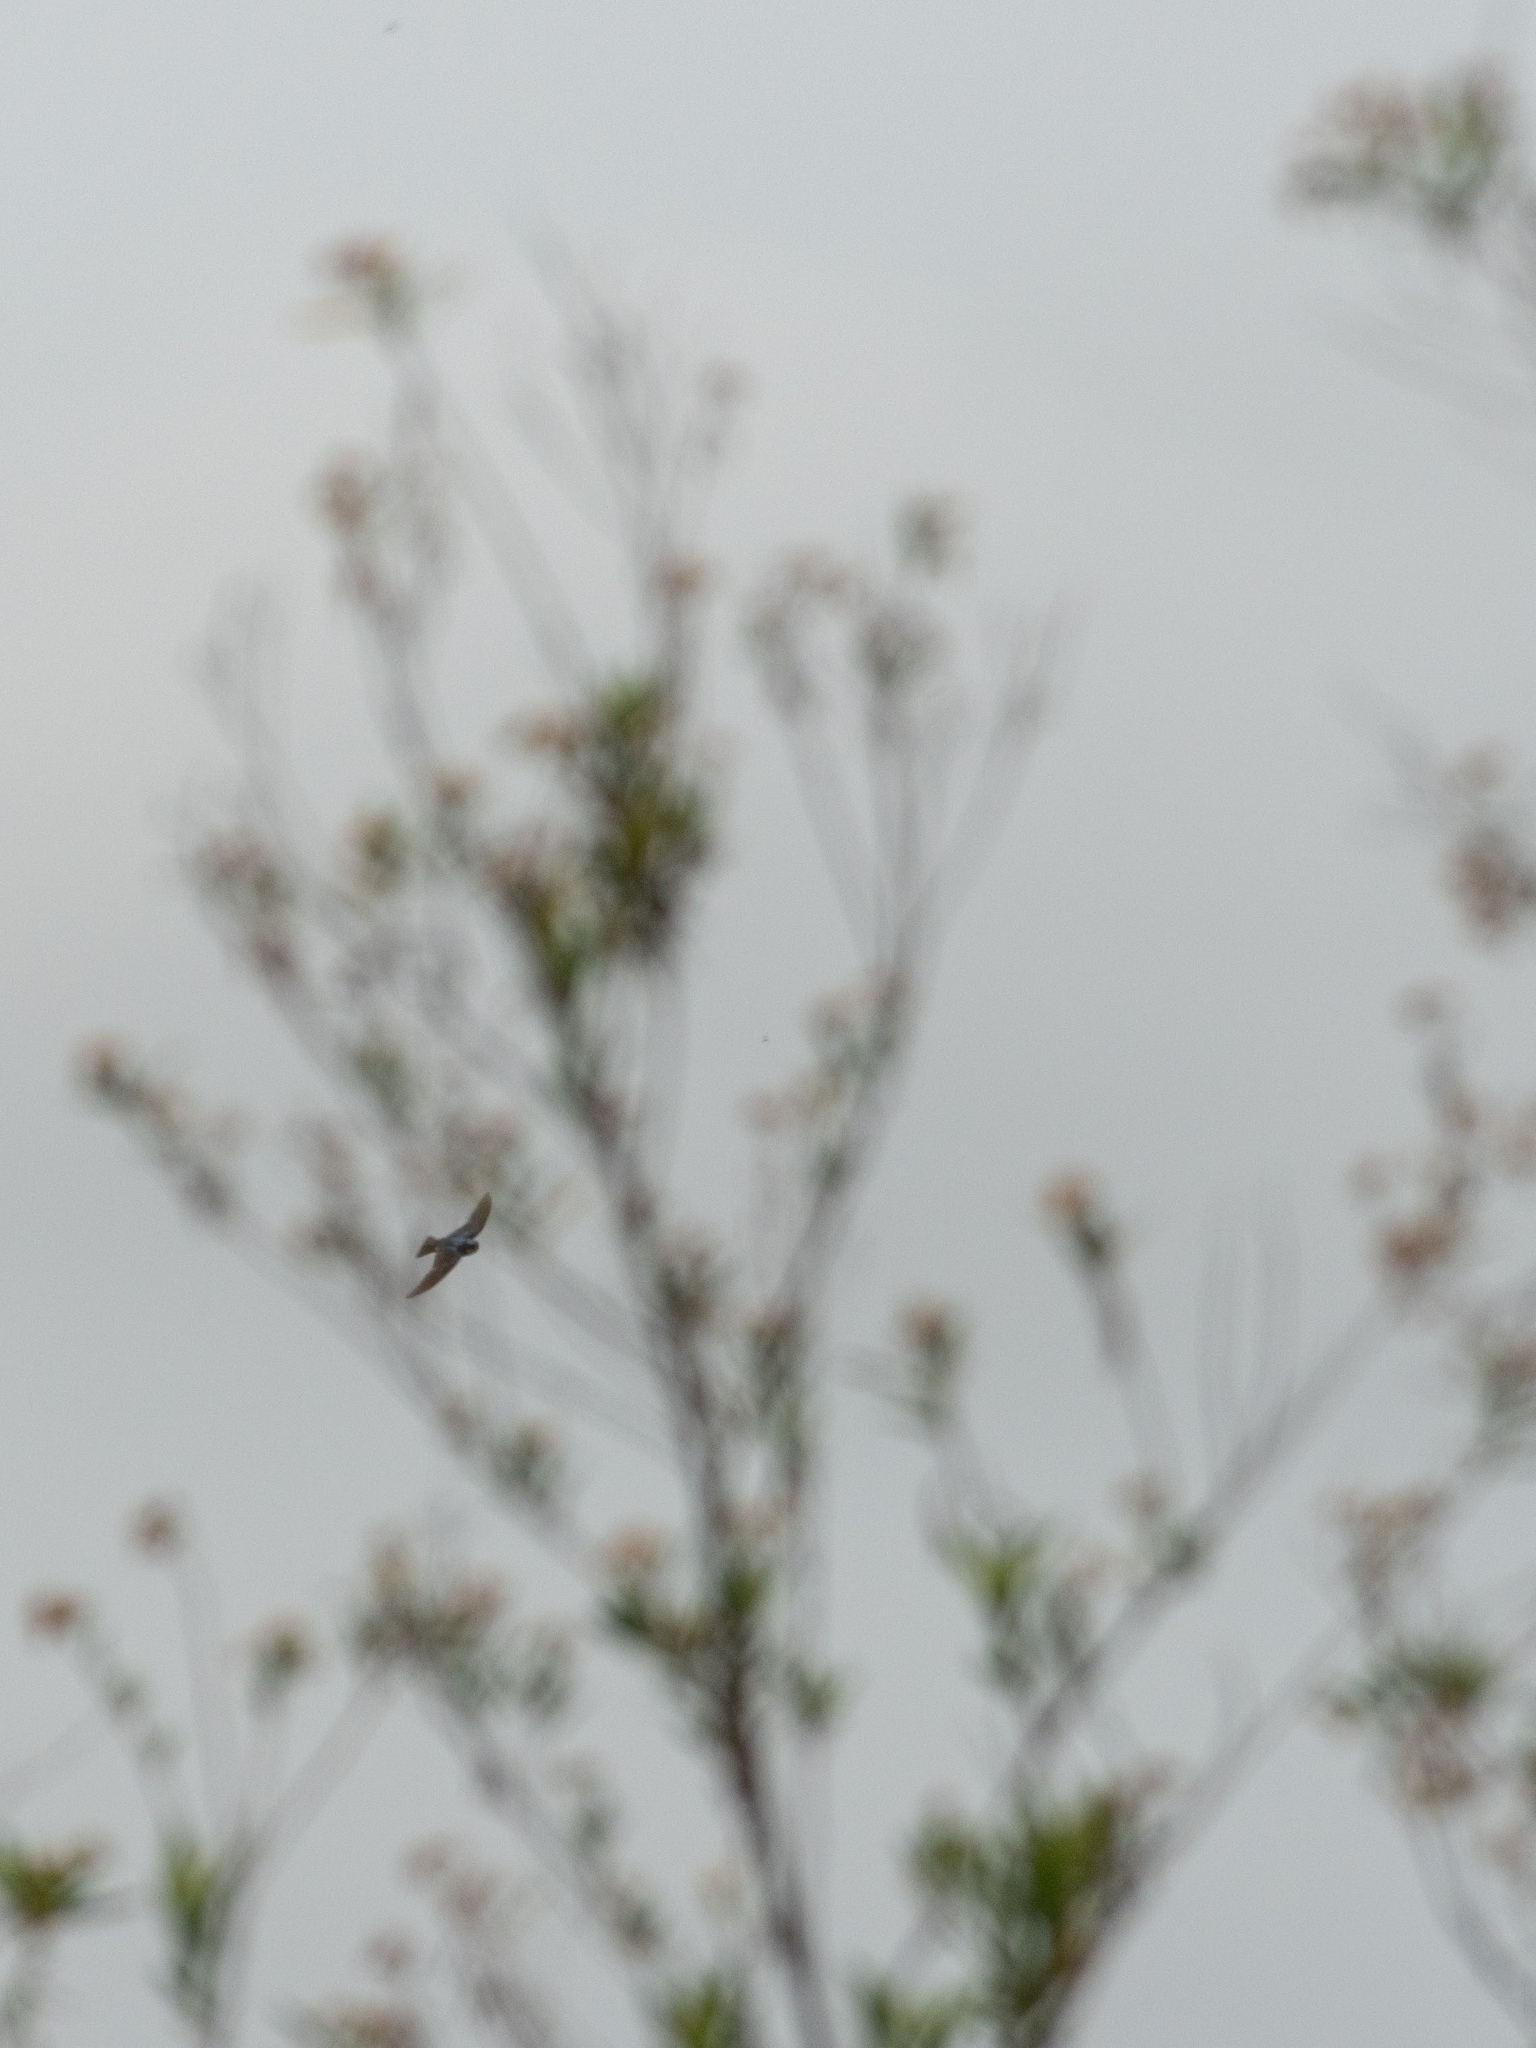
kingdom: Animalia
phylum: Chordata
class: Aves
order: Passeriformes
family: Hirundinidae
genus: Tachycineta
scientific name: Tachycineta bicolor
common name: Tree swallow
